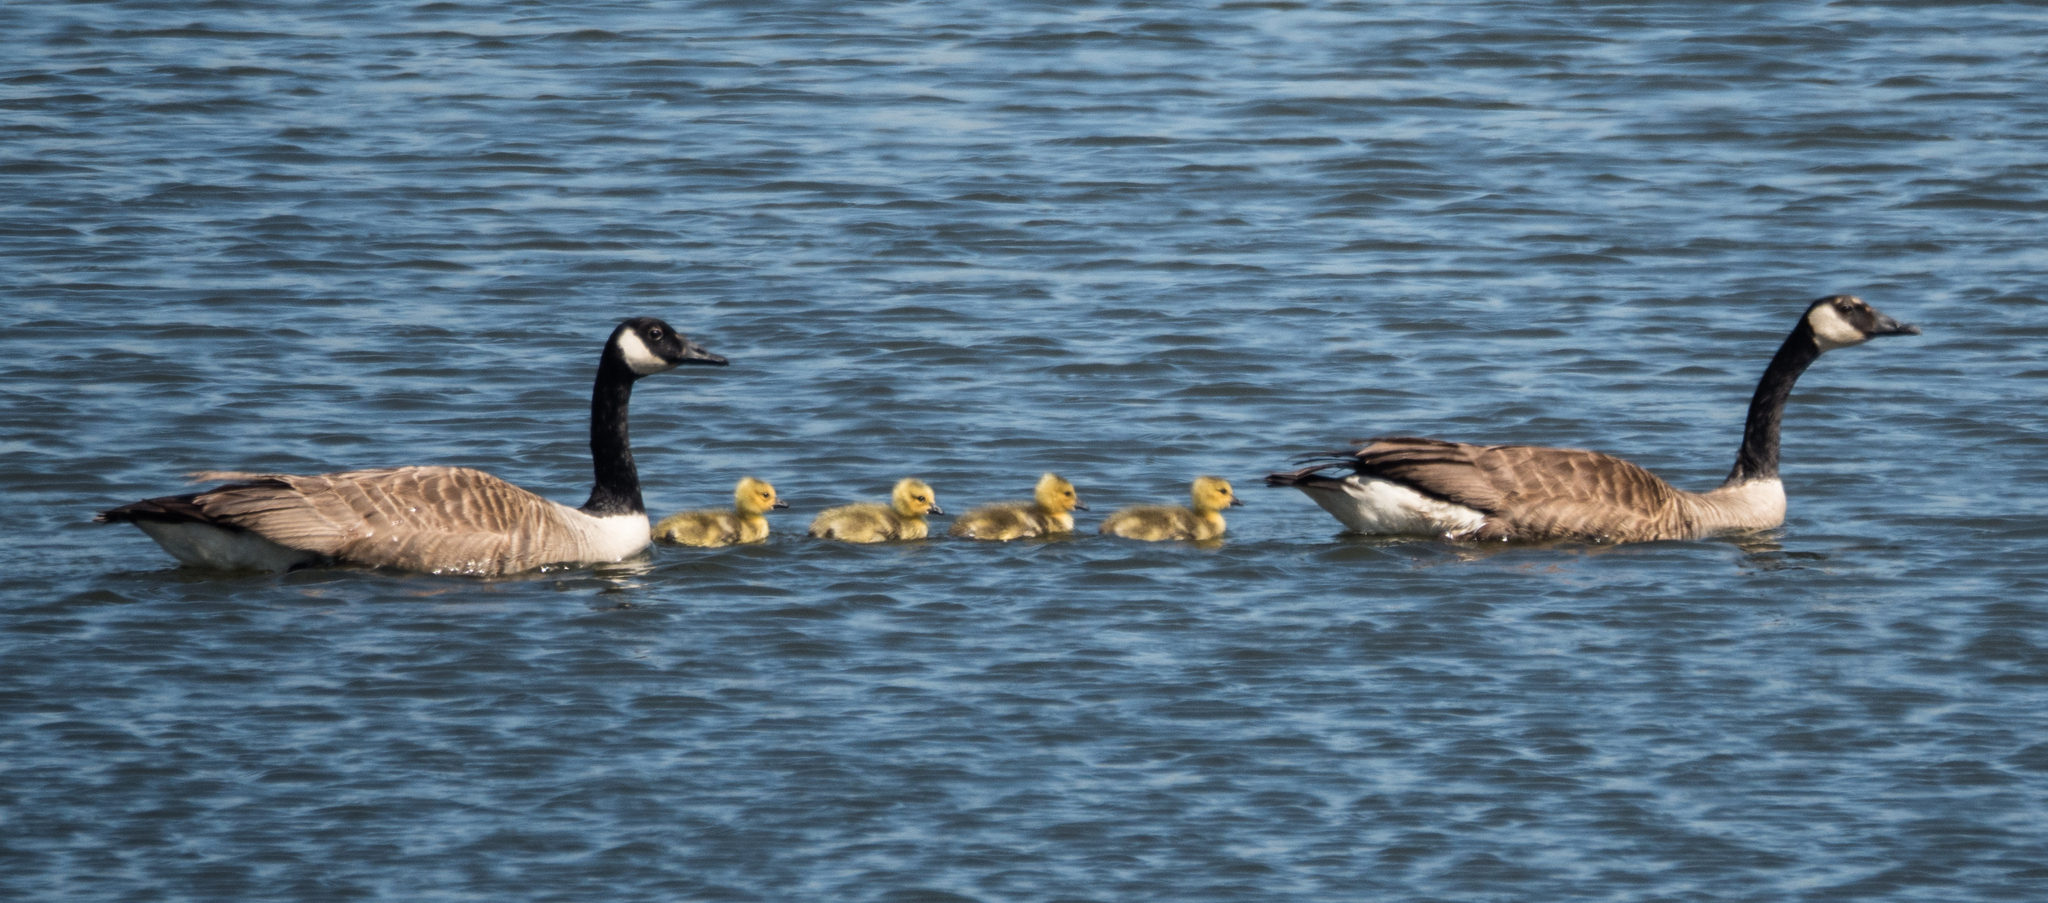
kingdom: Animalia
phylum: Chordata
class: Aves
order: Anseriformes
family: Anatidae
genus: Branta
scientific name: Branta canadensis
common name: Canada goose
